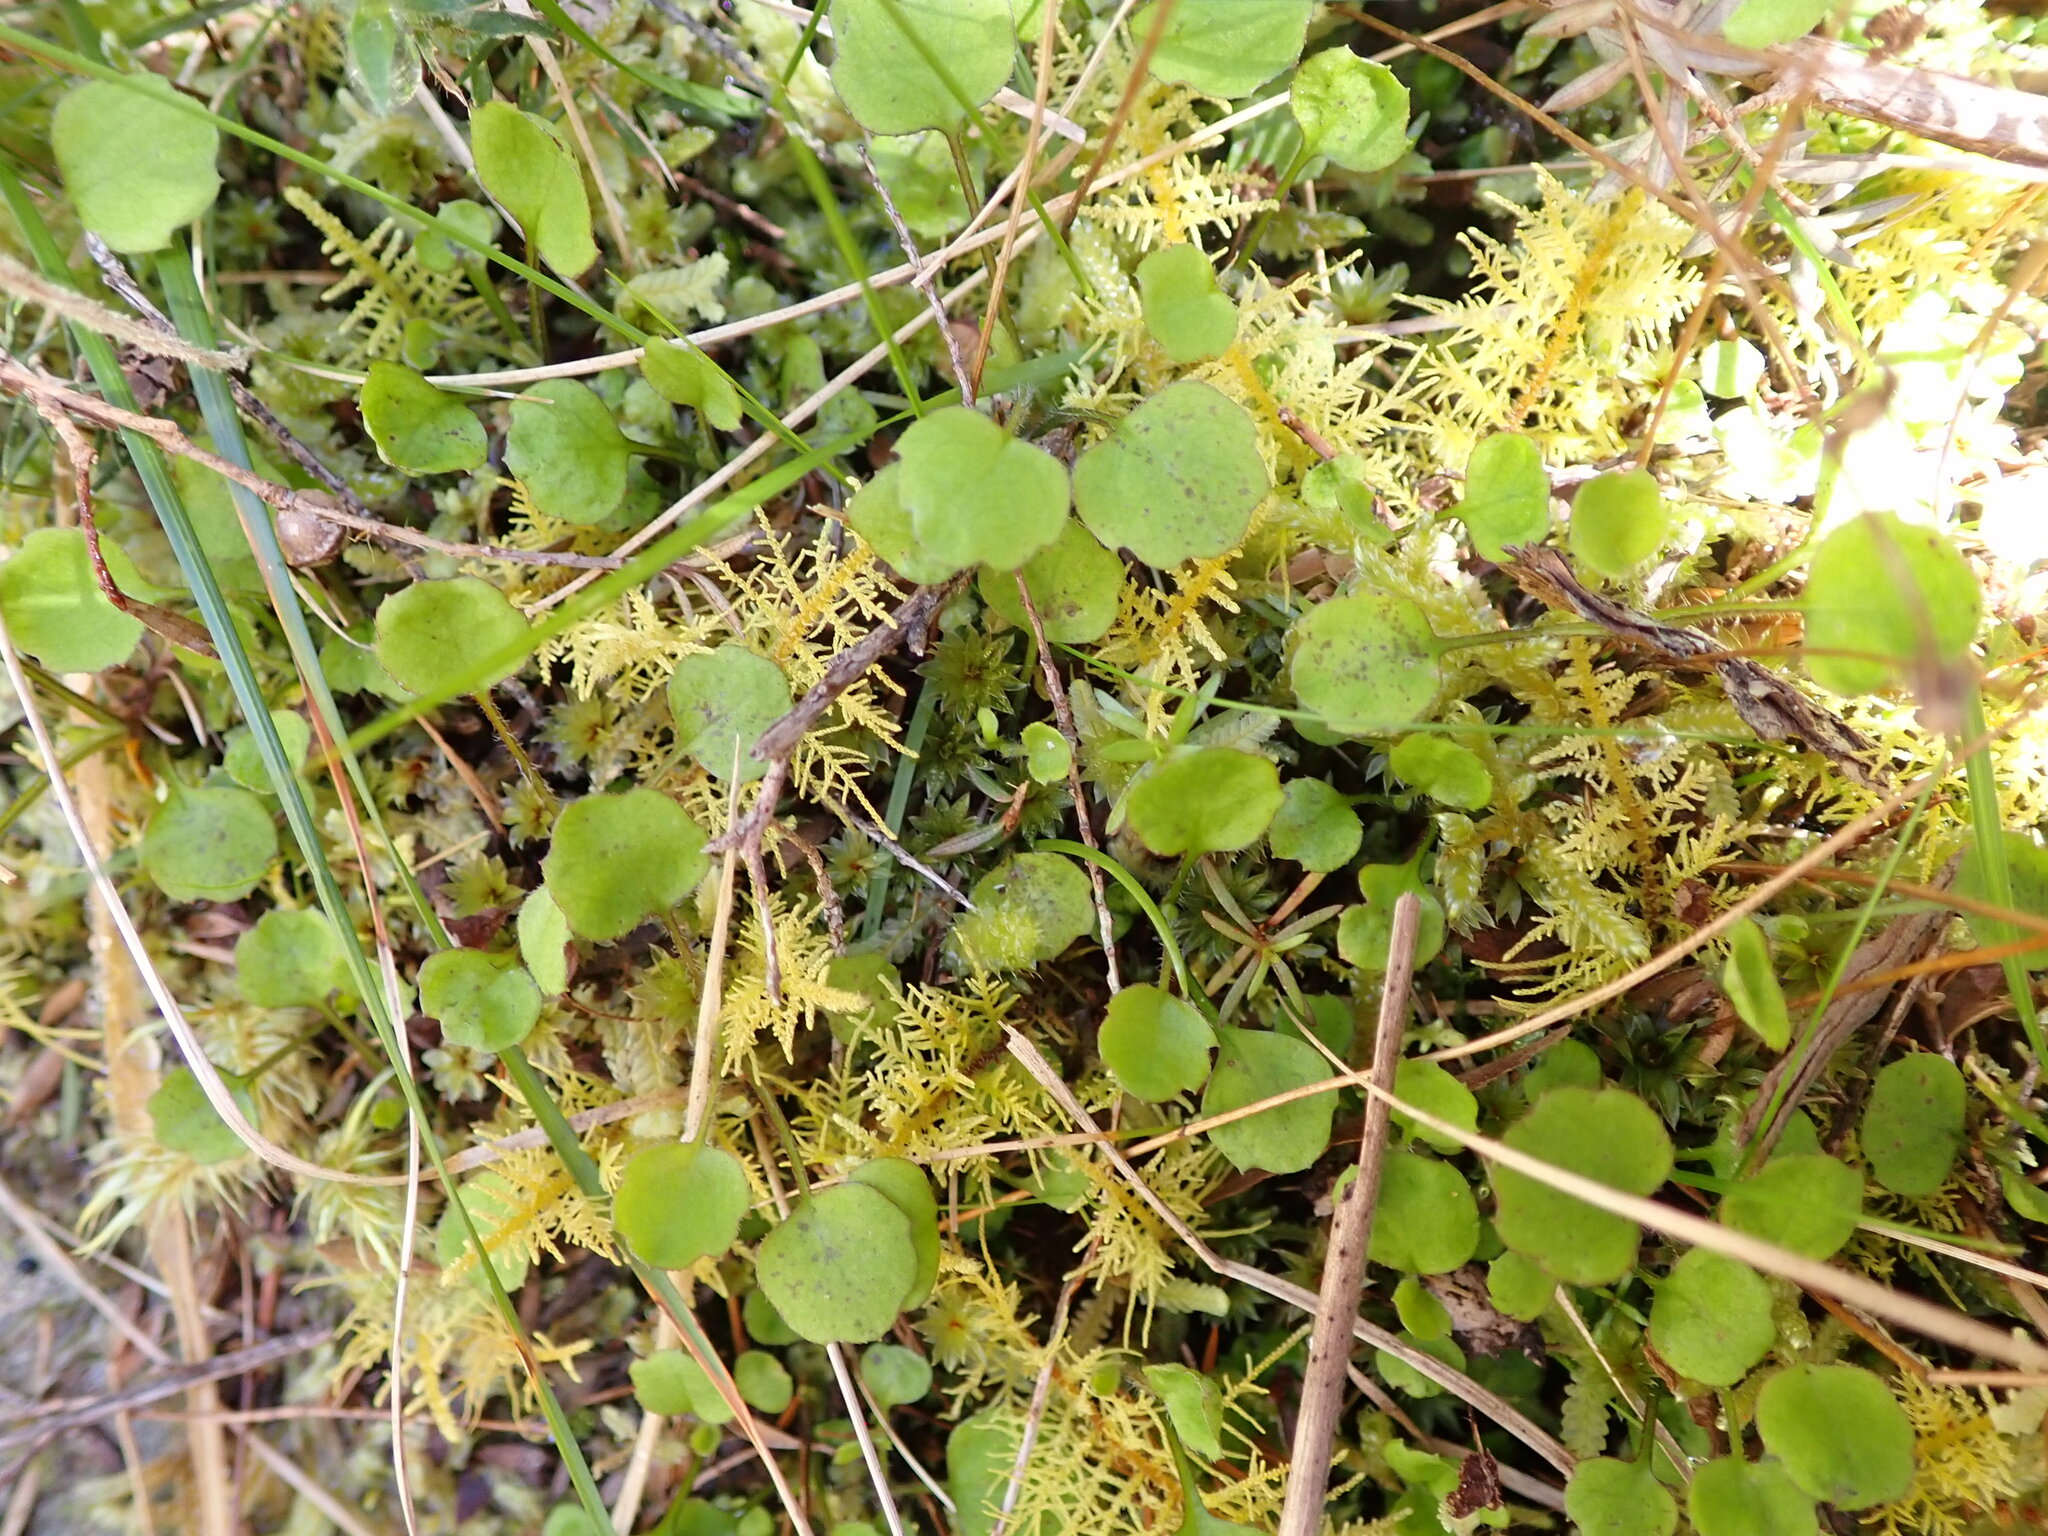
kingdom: Plantae
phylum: Tracheophyta
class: Magnoliopsida
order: Asterales
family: Asteraceae
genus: Lagenophora
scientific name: Lagenophora strangulata
